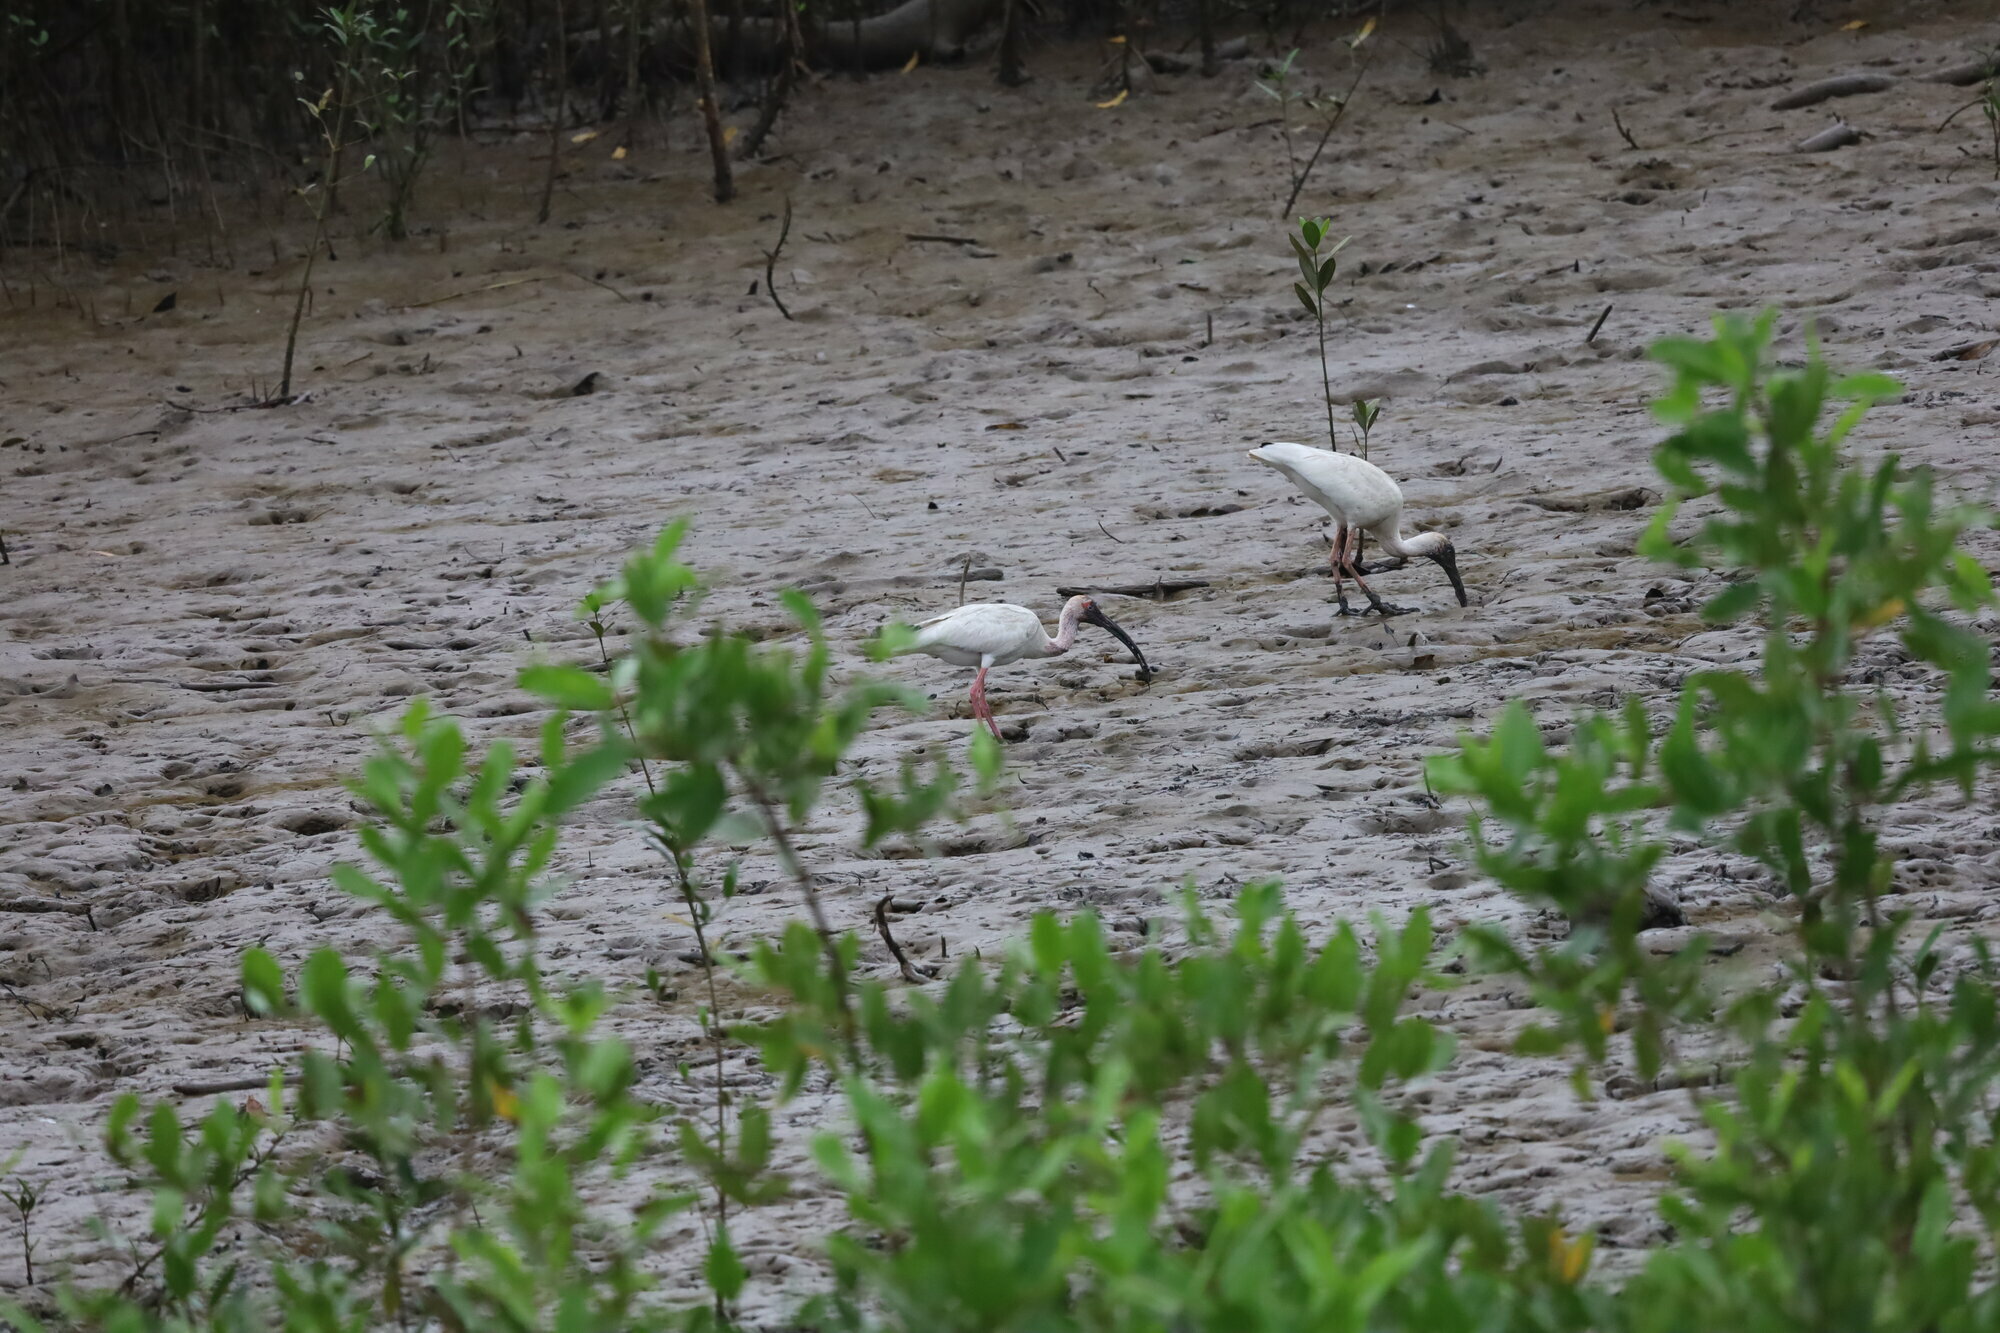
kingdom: Animalia
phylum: Chordata
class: Aves
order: Pelecaniformes
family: Threskiornithidae
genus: Eudocimus
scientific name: Eudocimus albus
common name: White ibis
